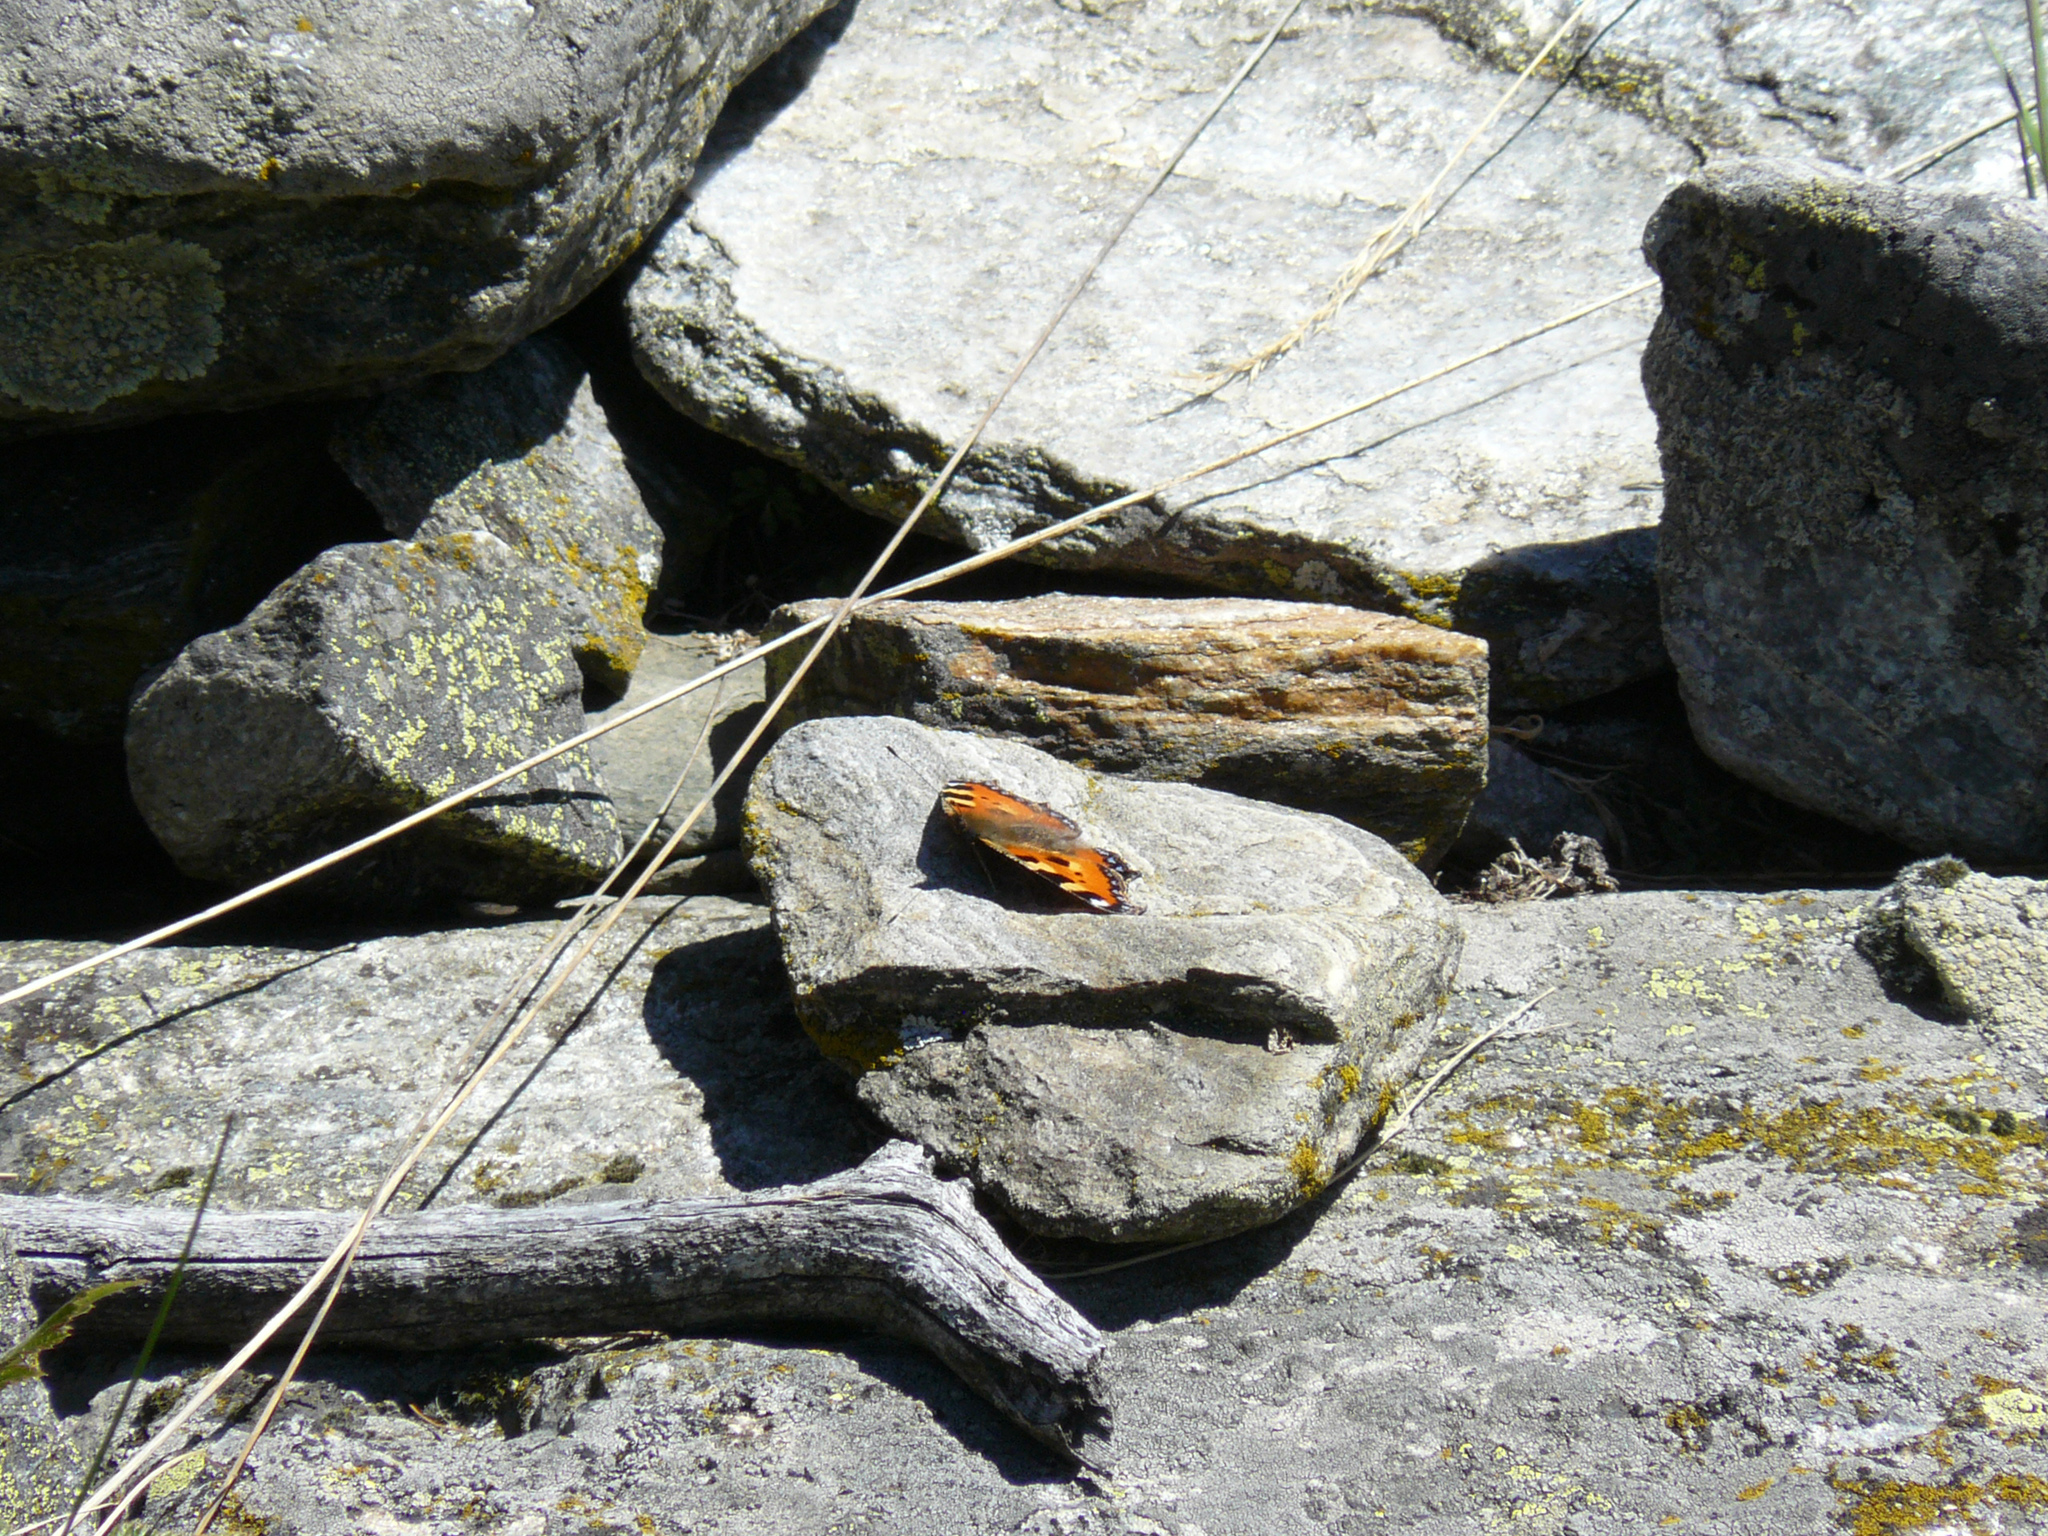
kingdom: Animalia
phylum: Arthropoda
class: Insecta
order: Lepidoptera
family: Nymphalidae
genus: Aglais
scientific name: Aglais urticae
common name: Small tortoiseshell
